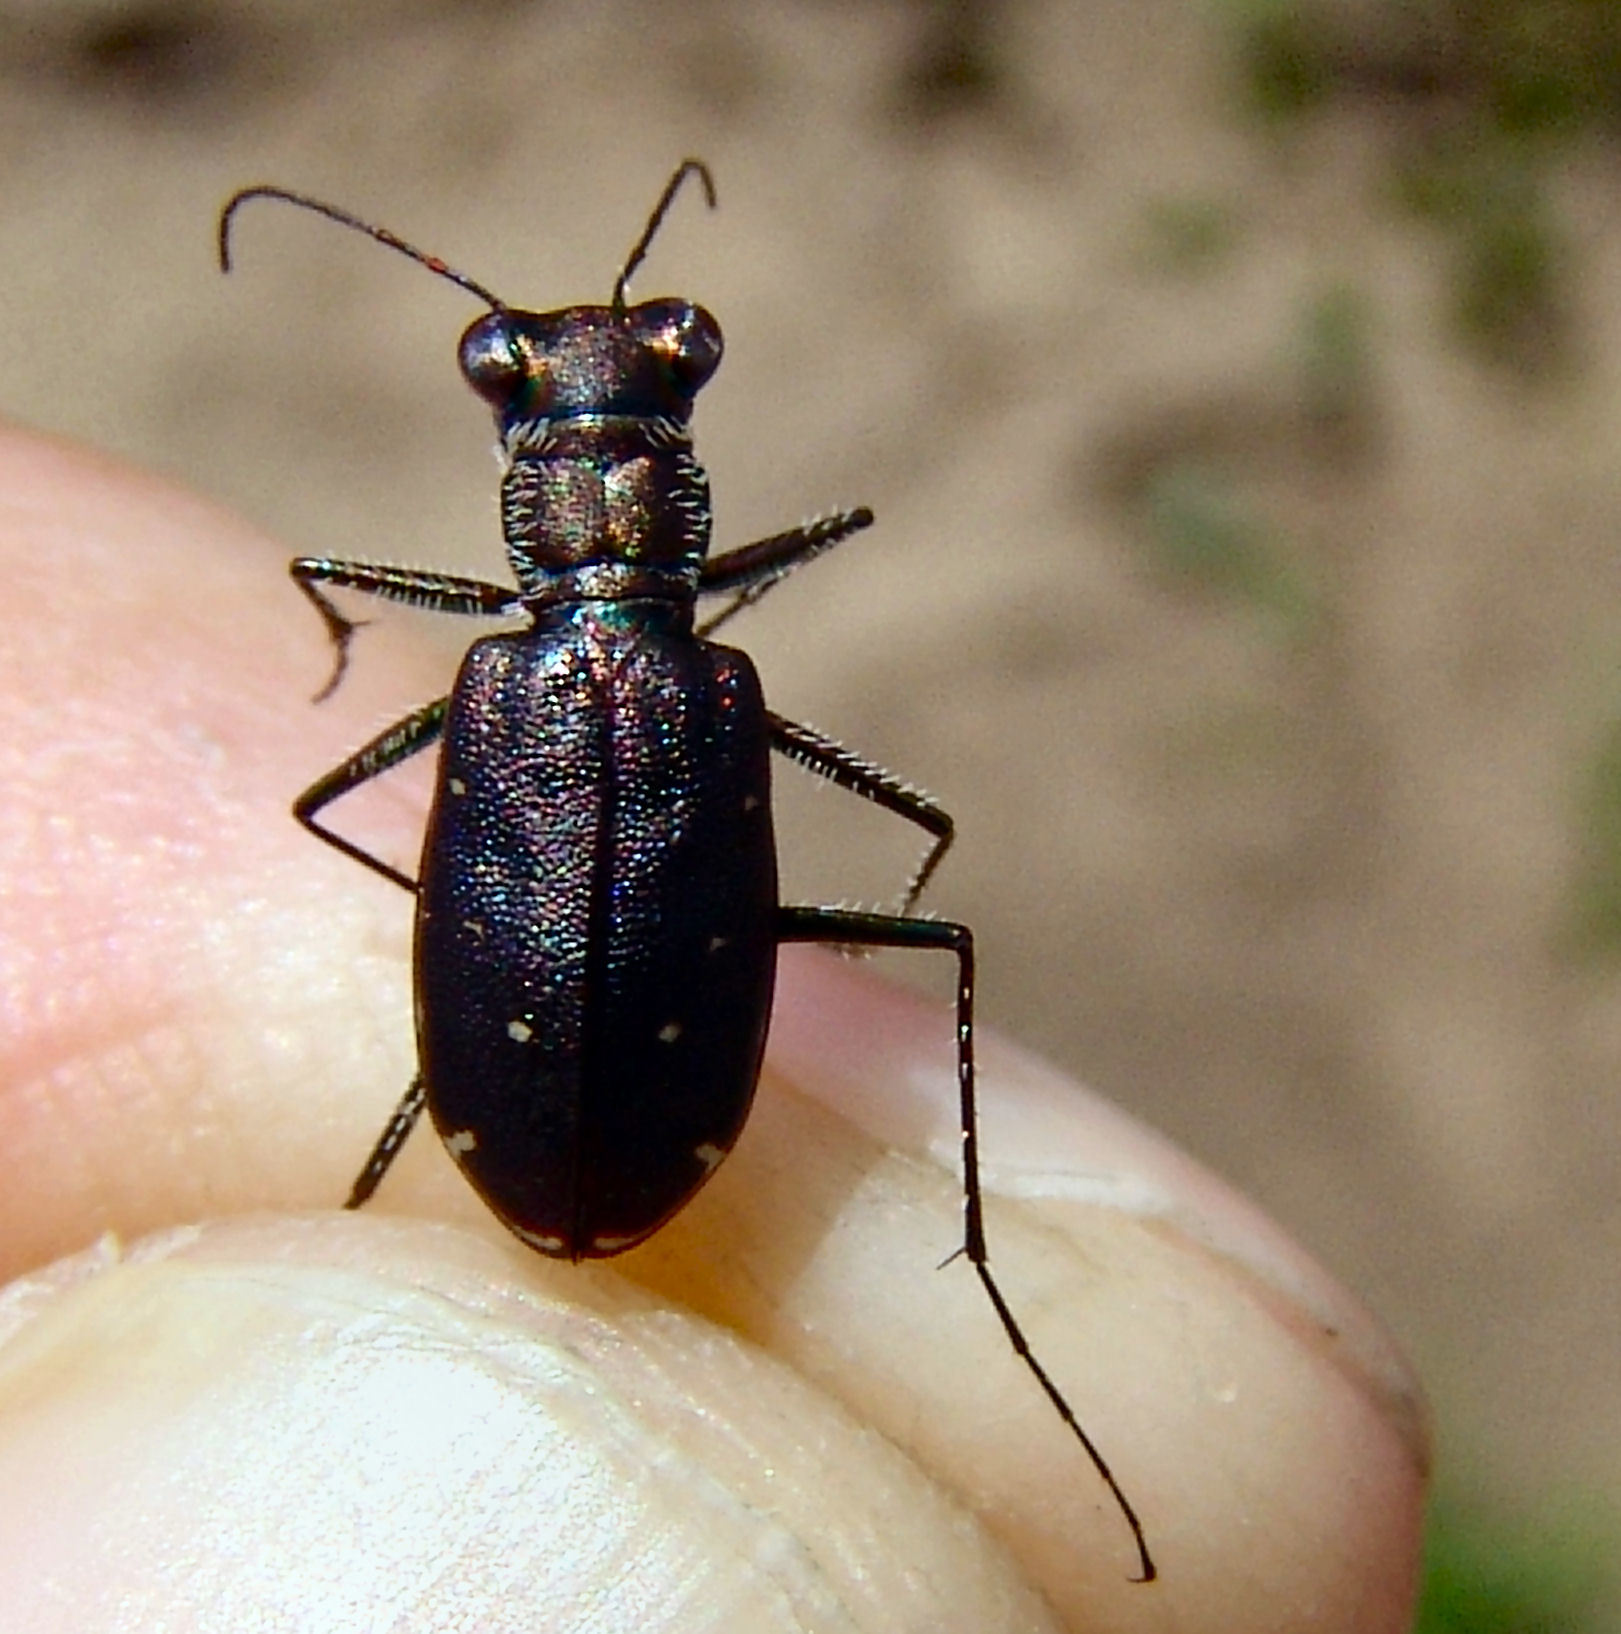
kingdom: Animalia
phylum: Arthropoda
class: Insecta
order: Coleoptera
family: Carabidae
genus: Cicindela
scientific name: Cicindela punctulata
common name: Punctured tiger beetle
